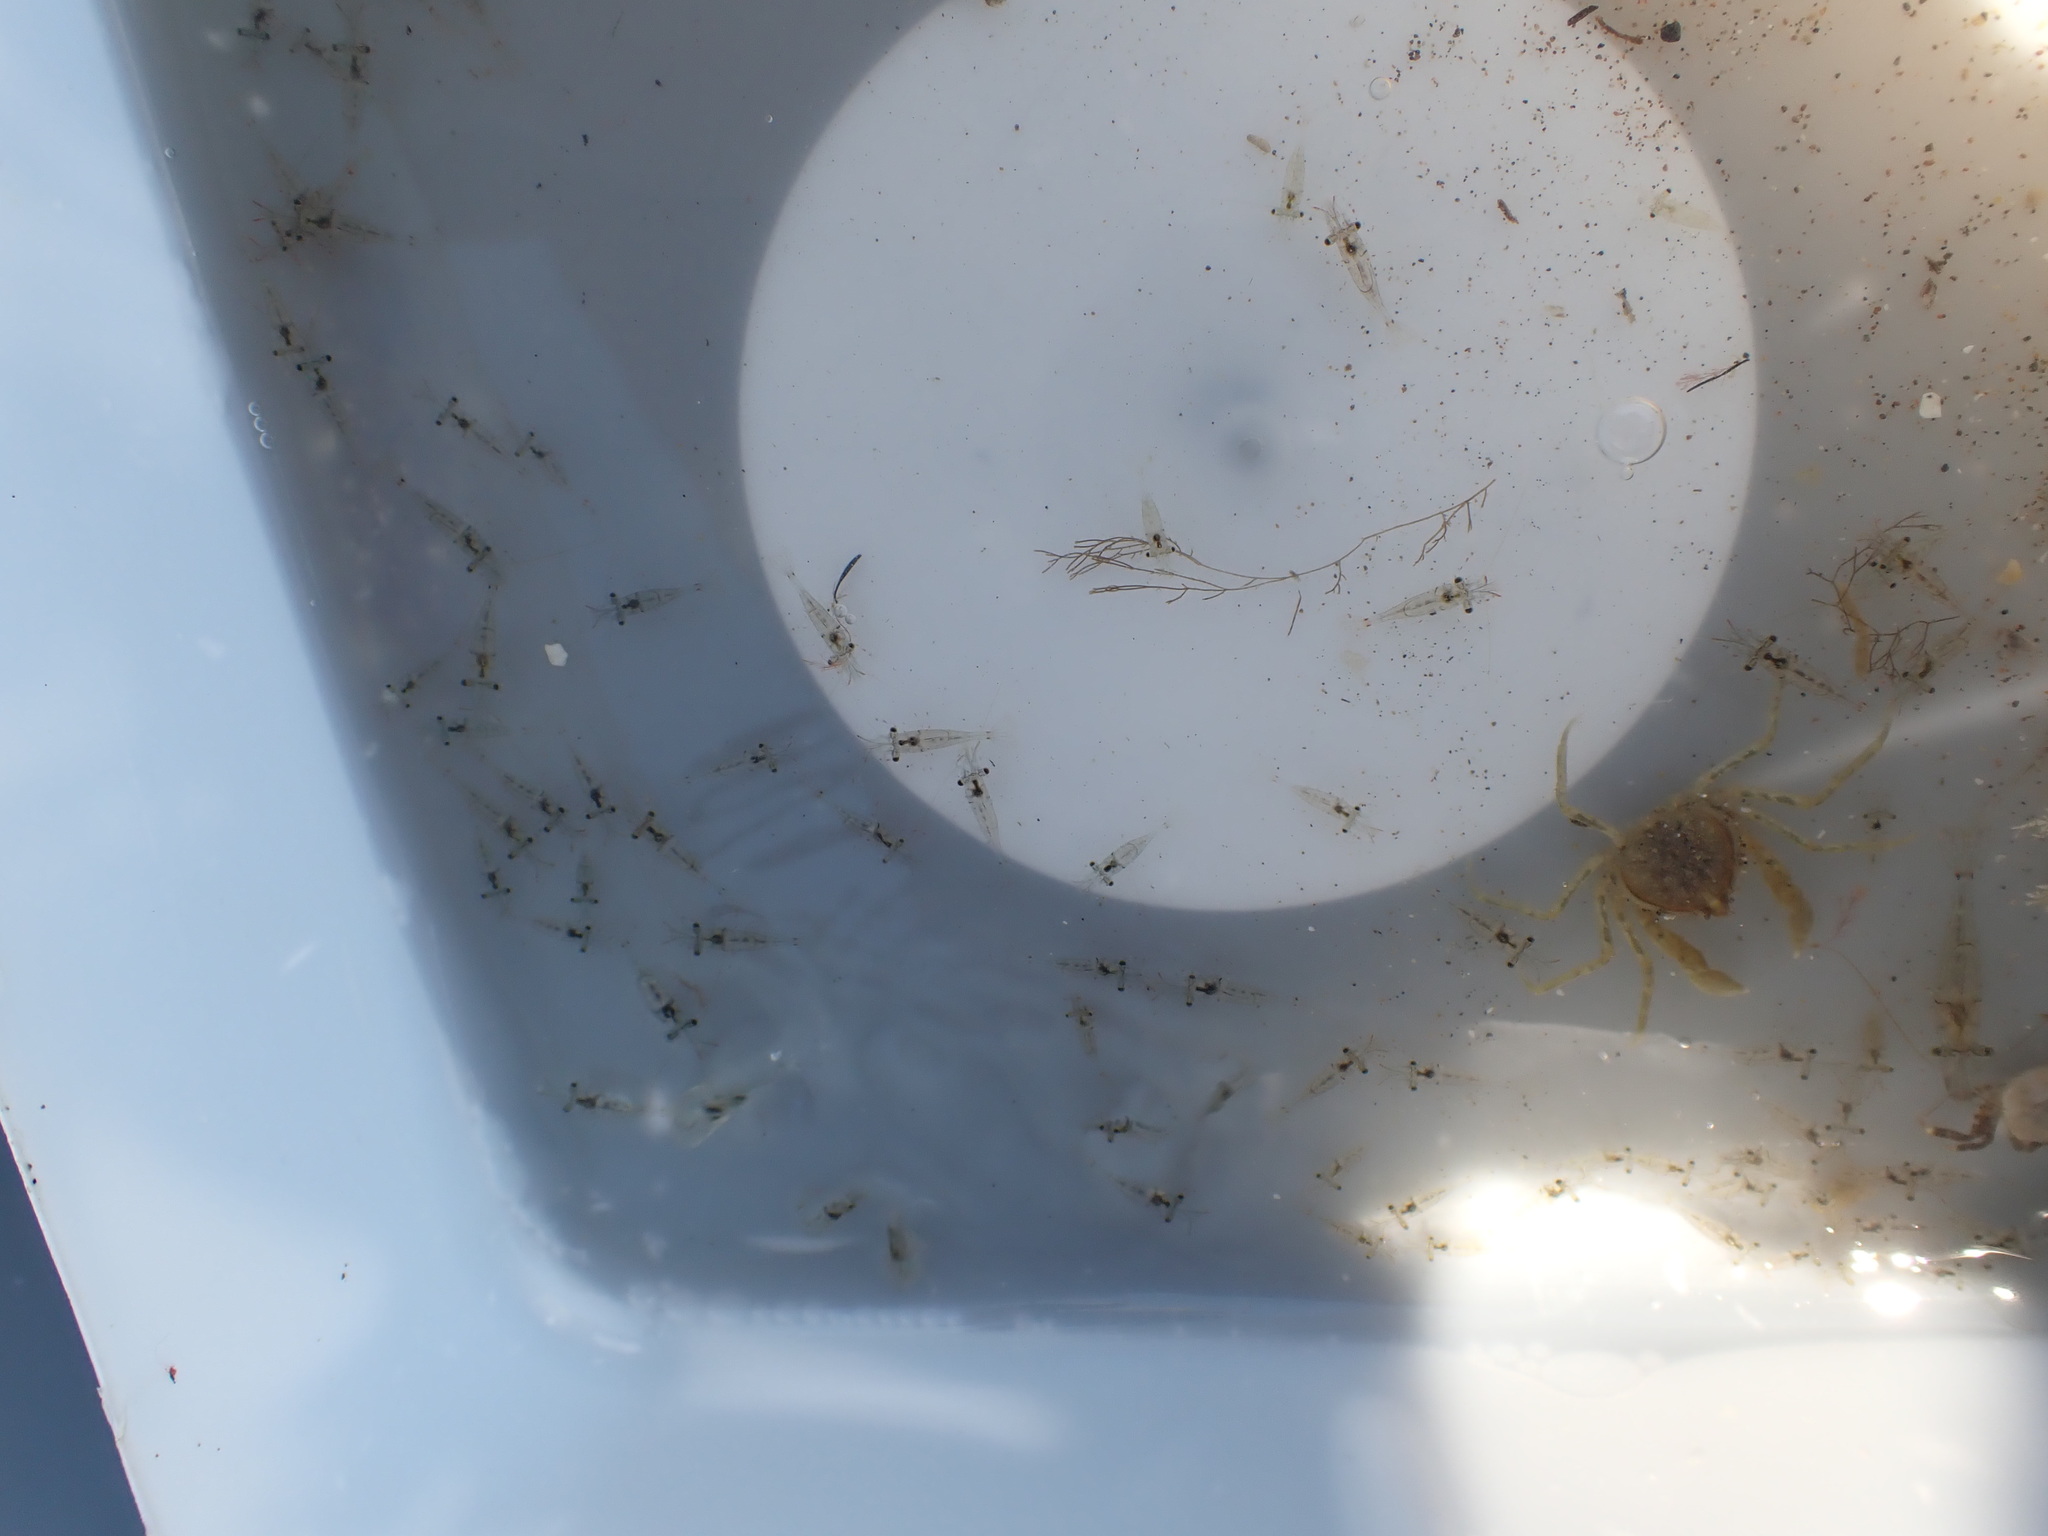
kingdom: Animalia
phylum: Arthropoda
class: Malacostraca
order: Decapoda
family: Palaemonidae
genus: Palaemon
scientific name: Palaemon affinis
